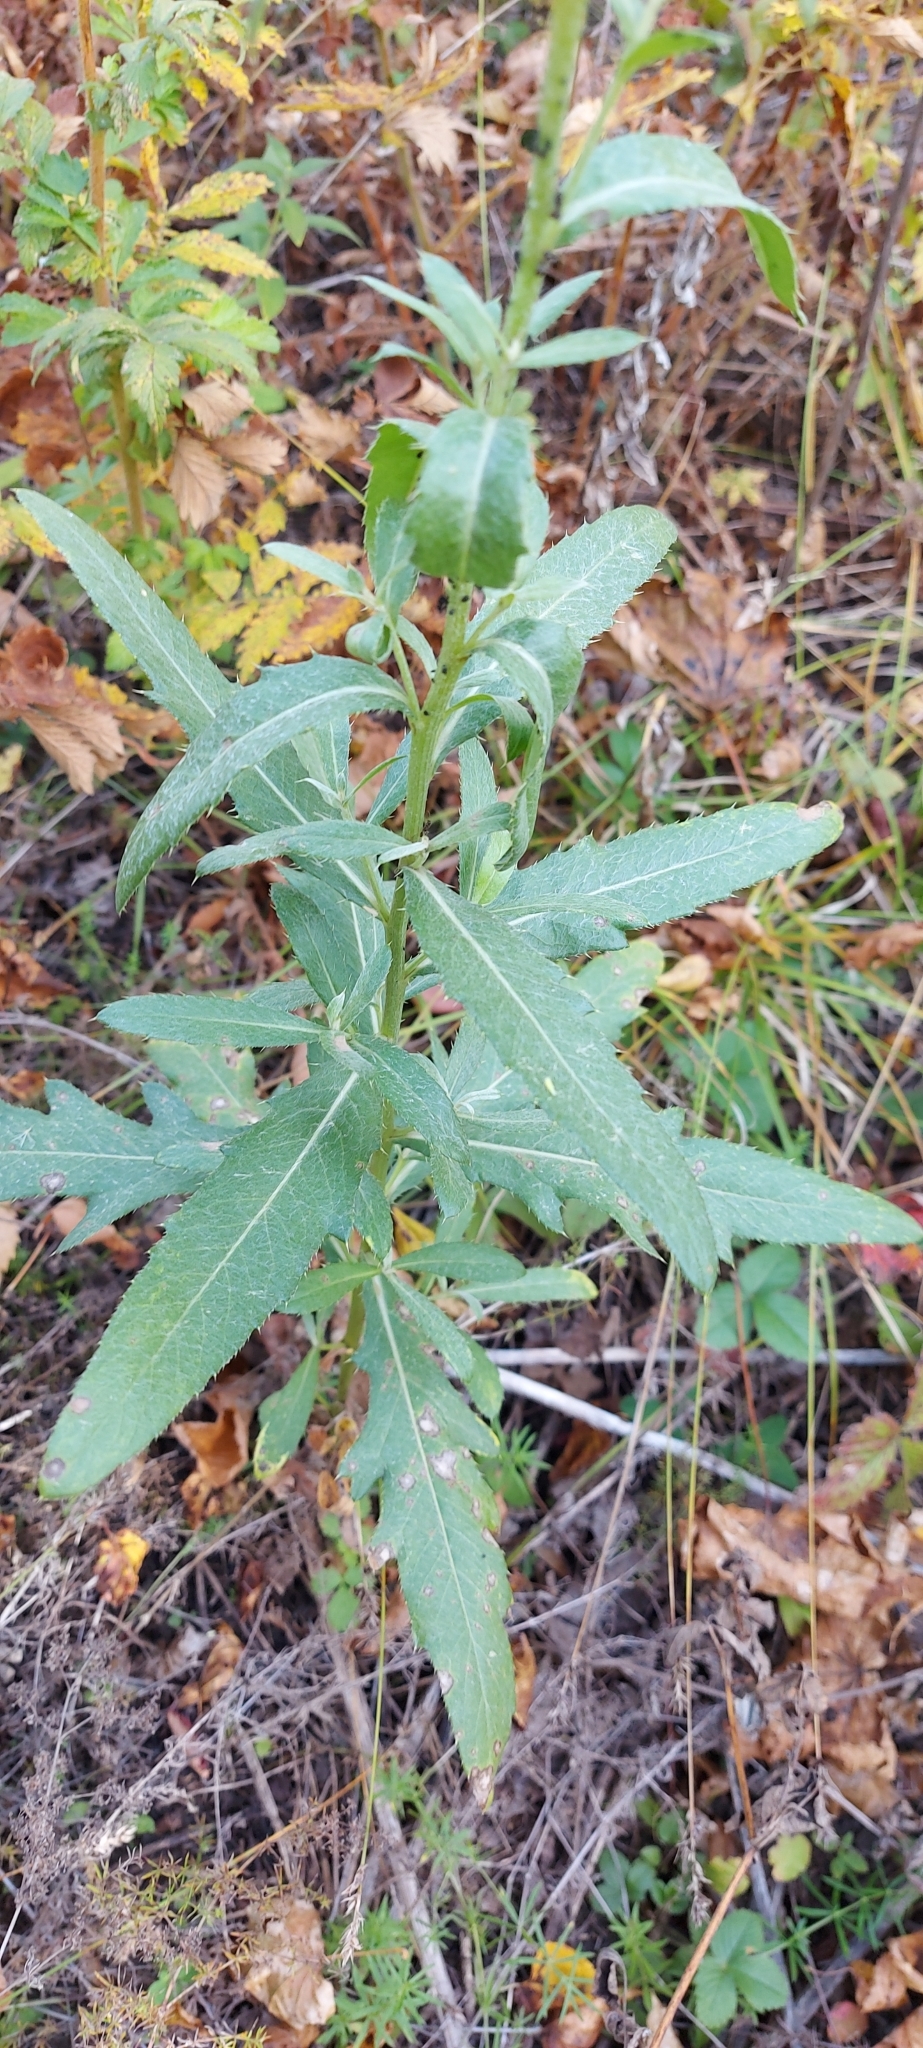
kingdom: Plantae
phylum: Tracheophyta
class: Magnoliopsida
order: Asterales
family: Asteraceae
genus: Cirsium
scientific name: Cirsium arvense
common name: Creeping thistle
